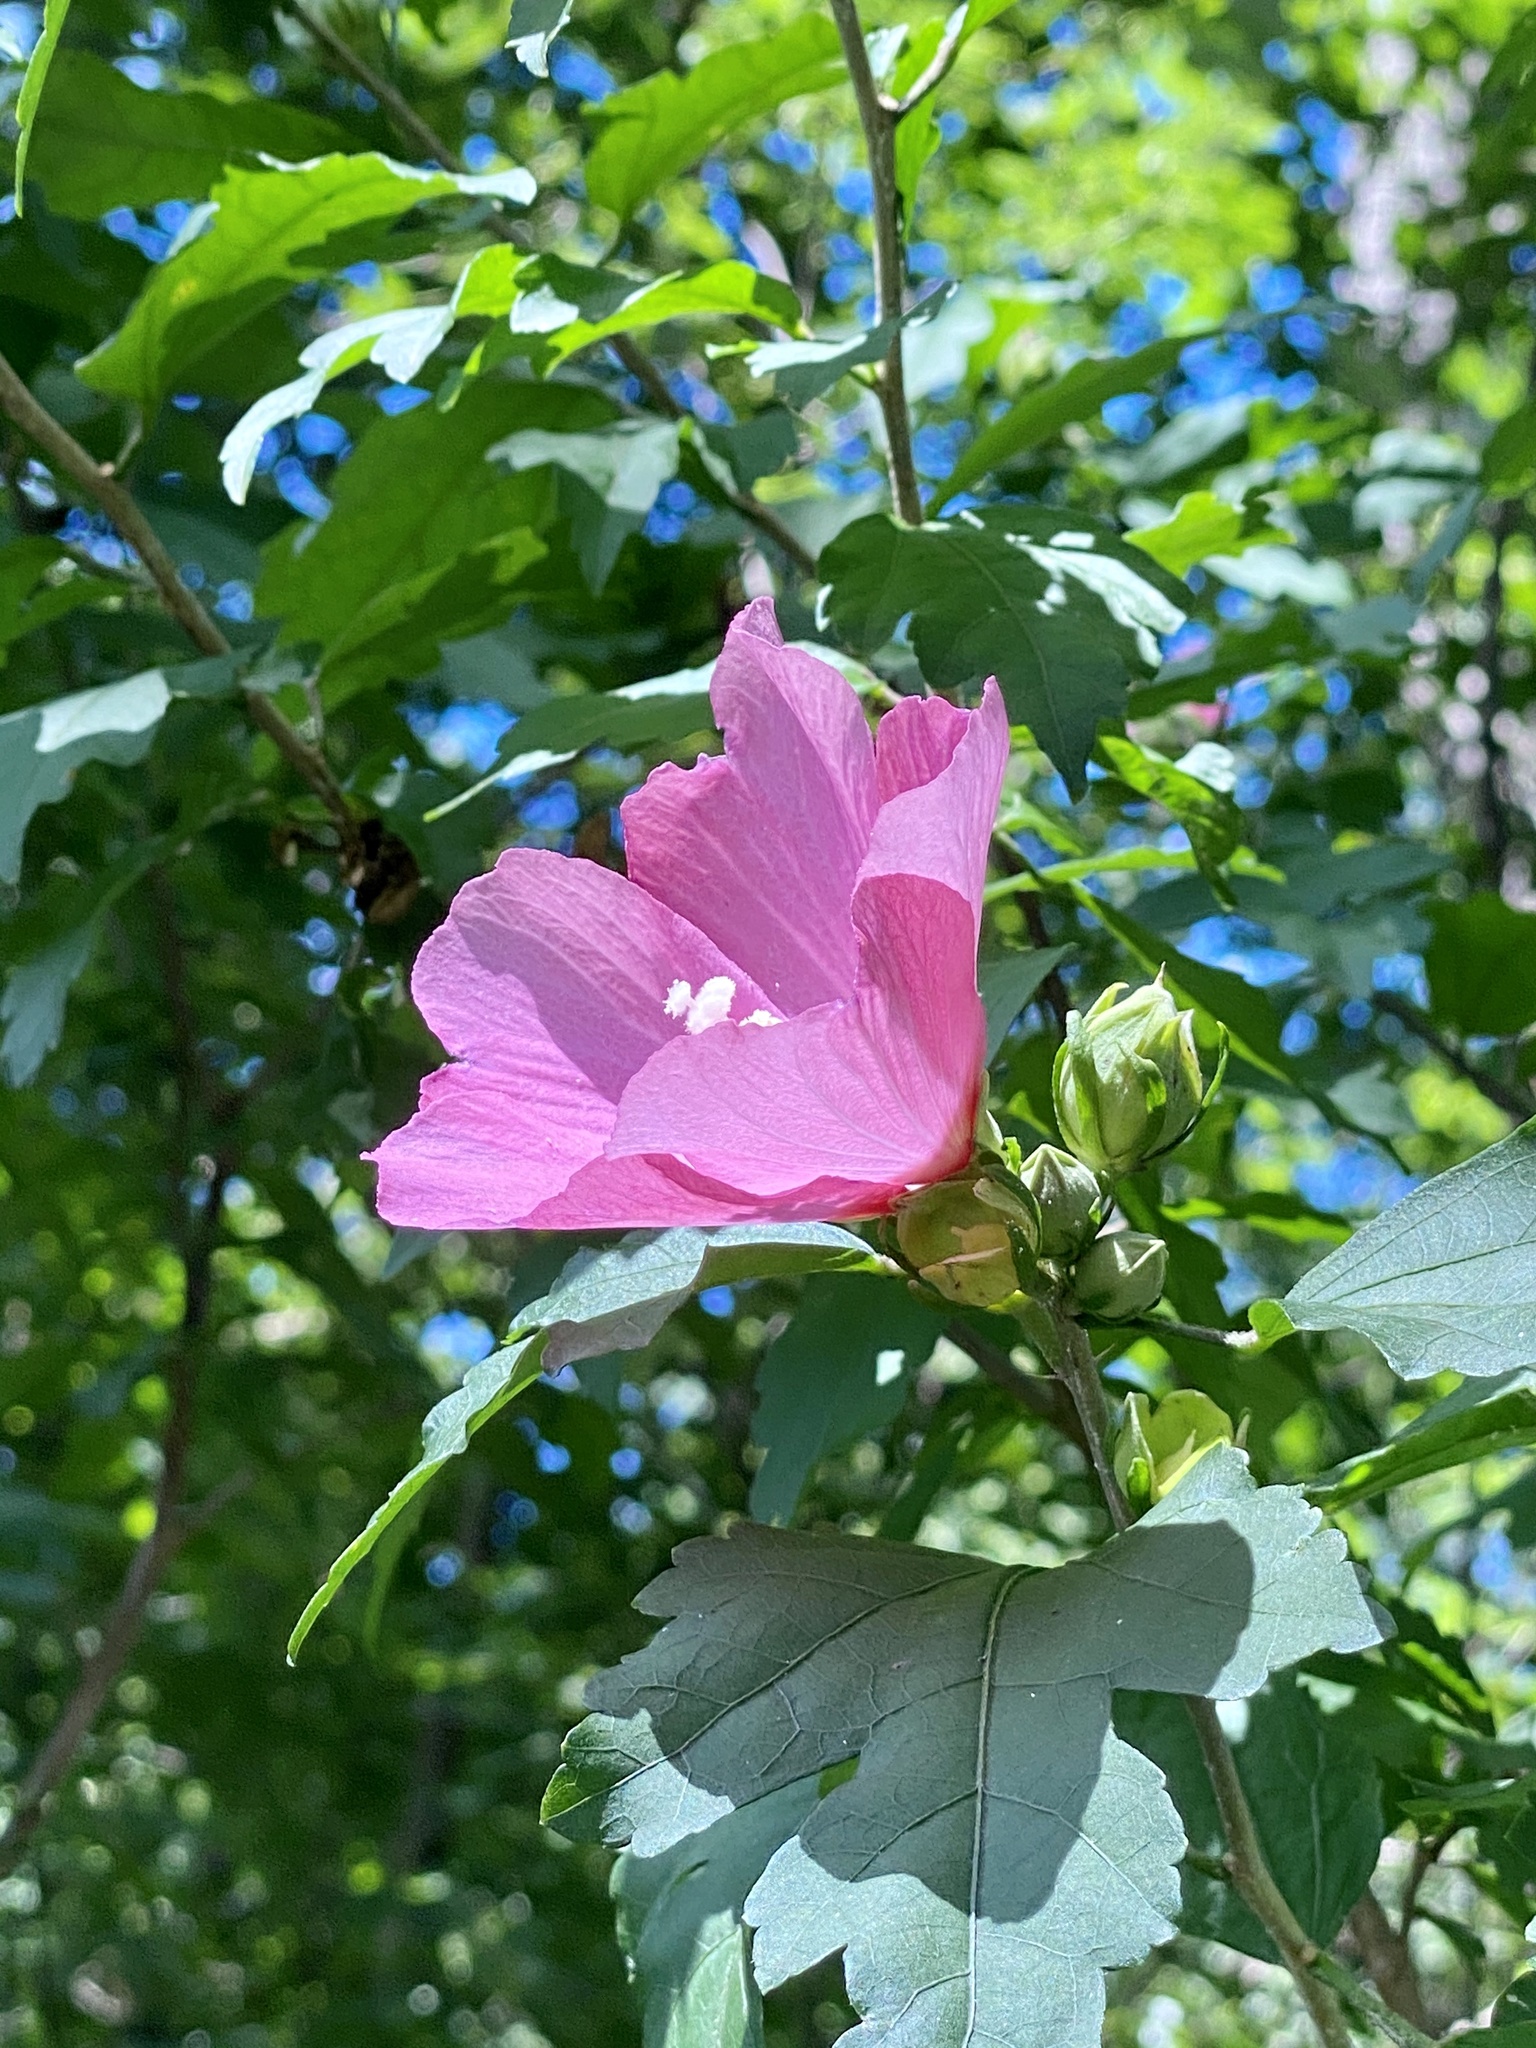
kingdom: Plantae
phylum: Tracheophyta
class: Magnoliopsida
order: Malvales
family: Malvaceae
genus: Hibiscus
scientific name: Hibiscus syriacus
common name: Syrian ketmia
